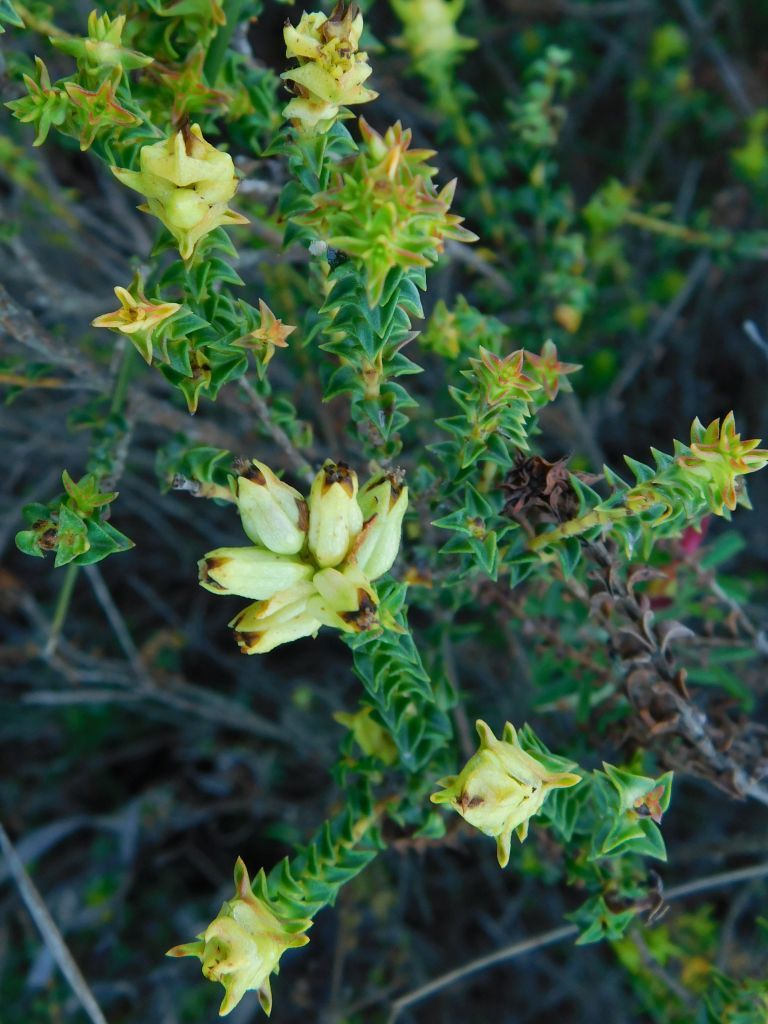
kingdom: Plantae
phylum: Tracheophyta
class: Magnoliopsida
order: Myrtales
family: Penaeaceae
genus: Penaea
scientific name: Penaea mucronata
